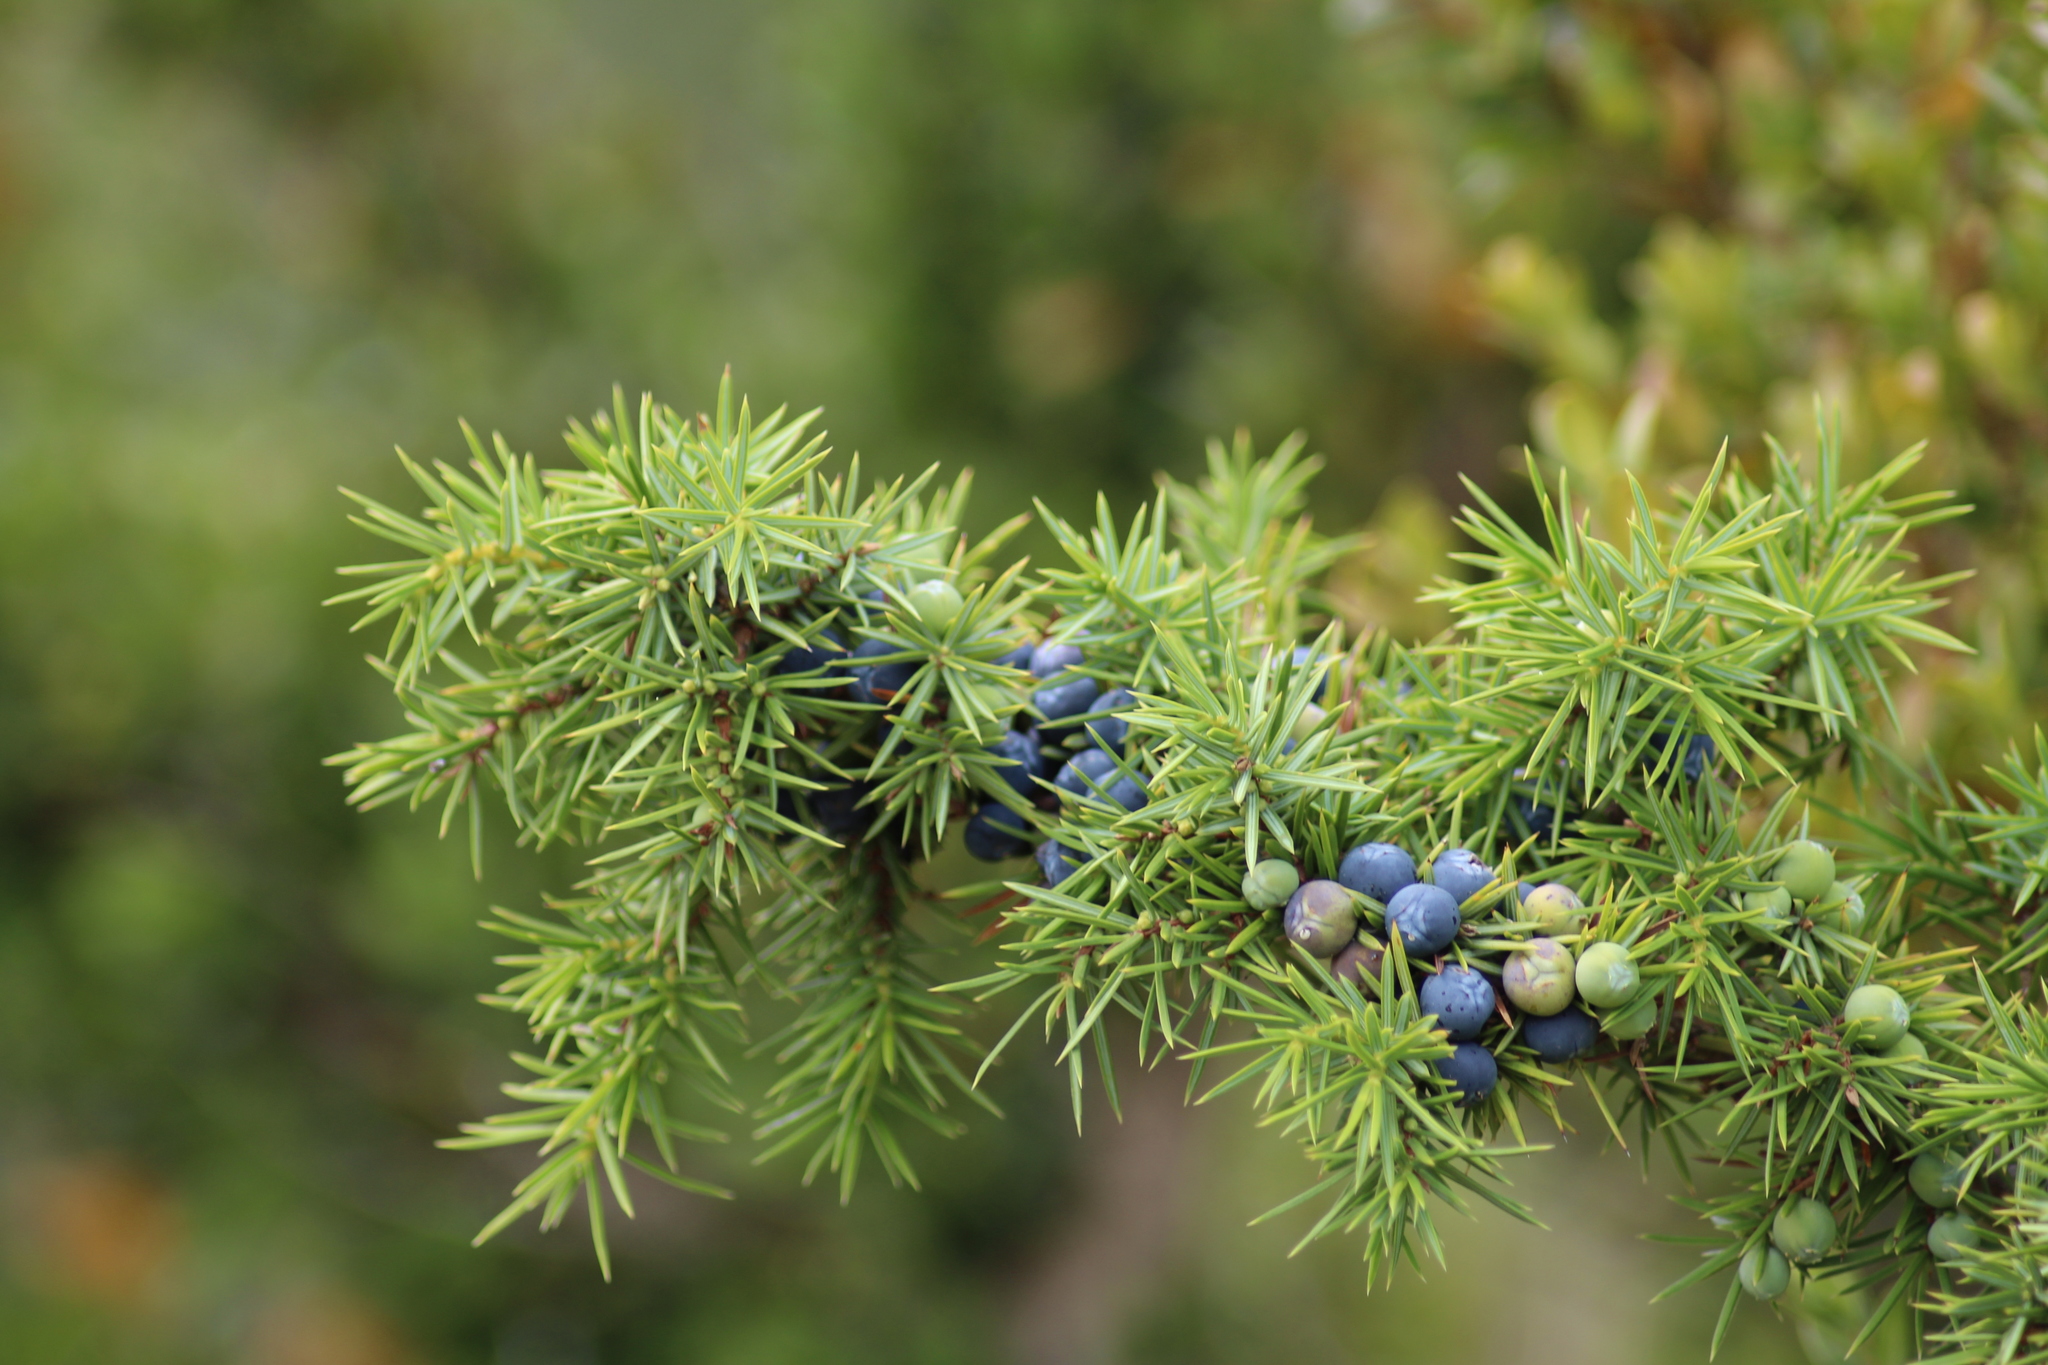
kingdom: Plantae
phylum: Tracheophyta
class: Pinopsida
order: Pinales
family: Cupressaceae
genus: Juniperus
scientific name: Juniperus communis
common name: Common juniper
